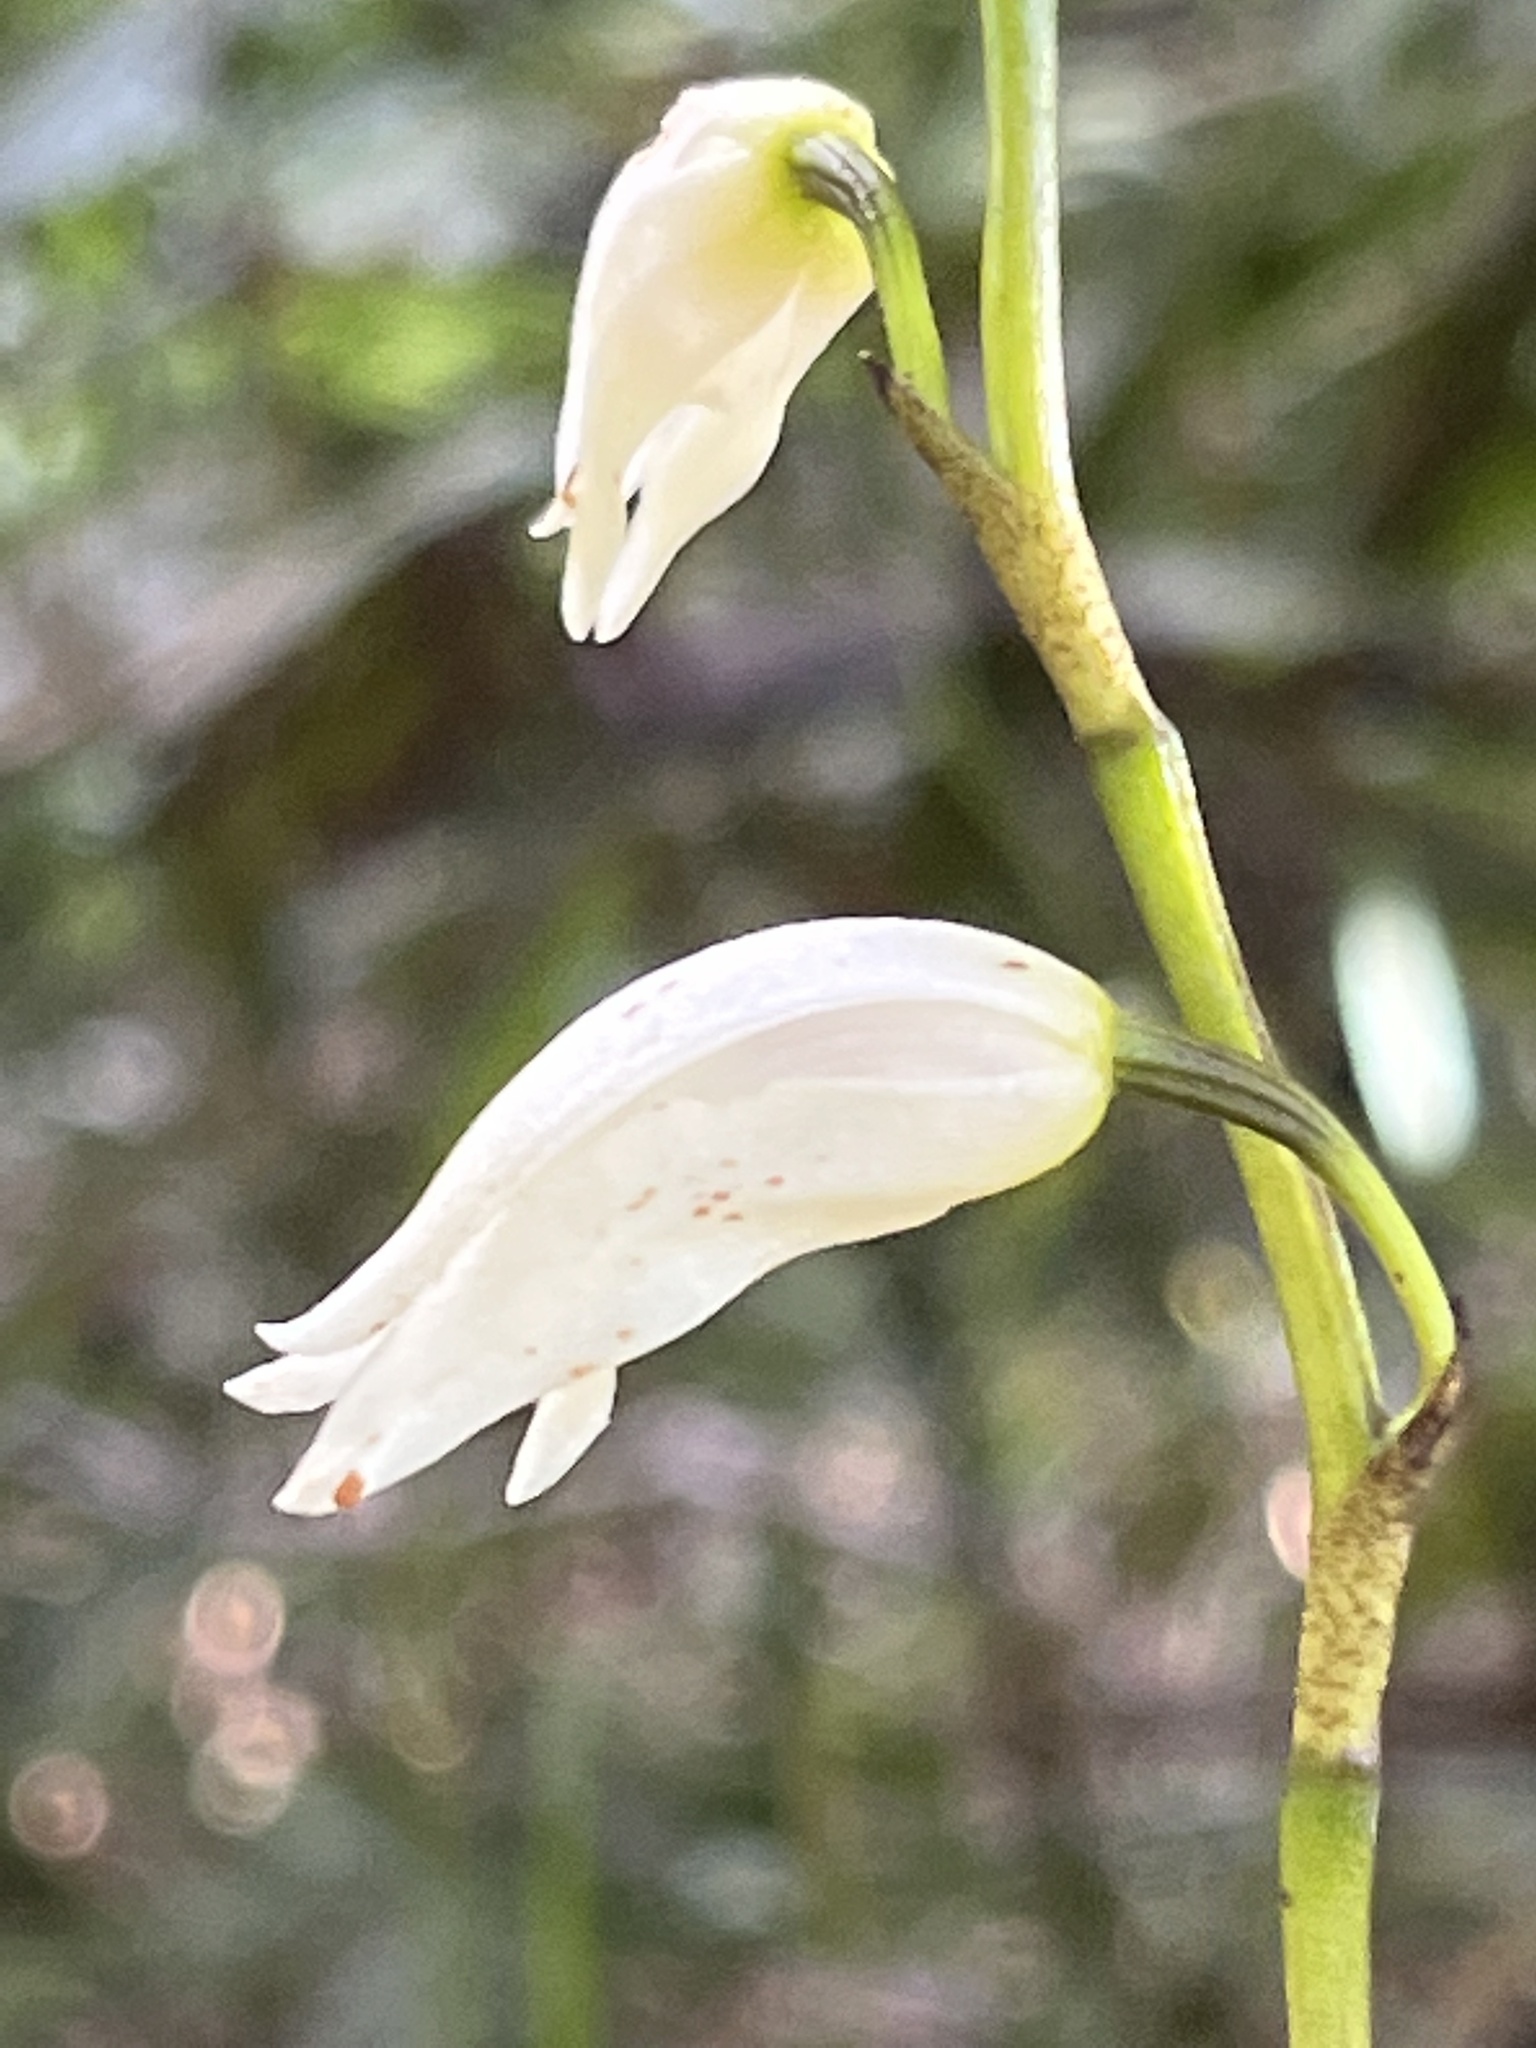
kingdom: Plantae
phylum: Tracheophyta
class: Liliopsida
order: Asparagales
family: Orchidaceae
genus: Dilomilis
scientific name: Dilomilis montana
